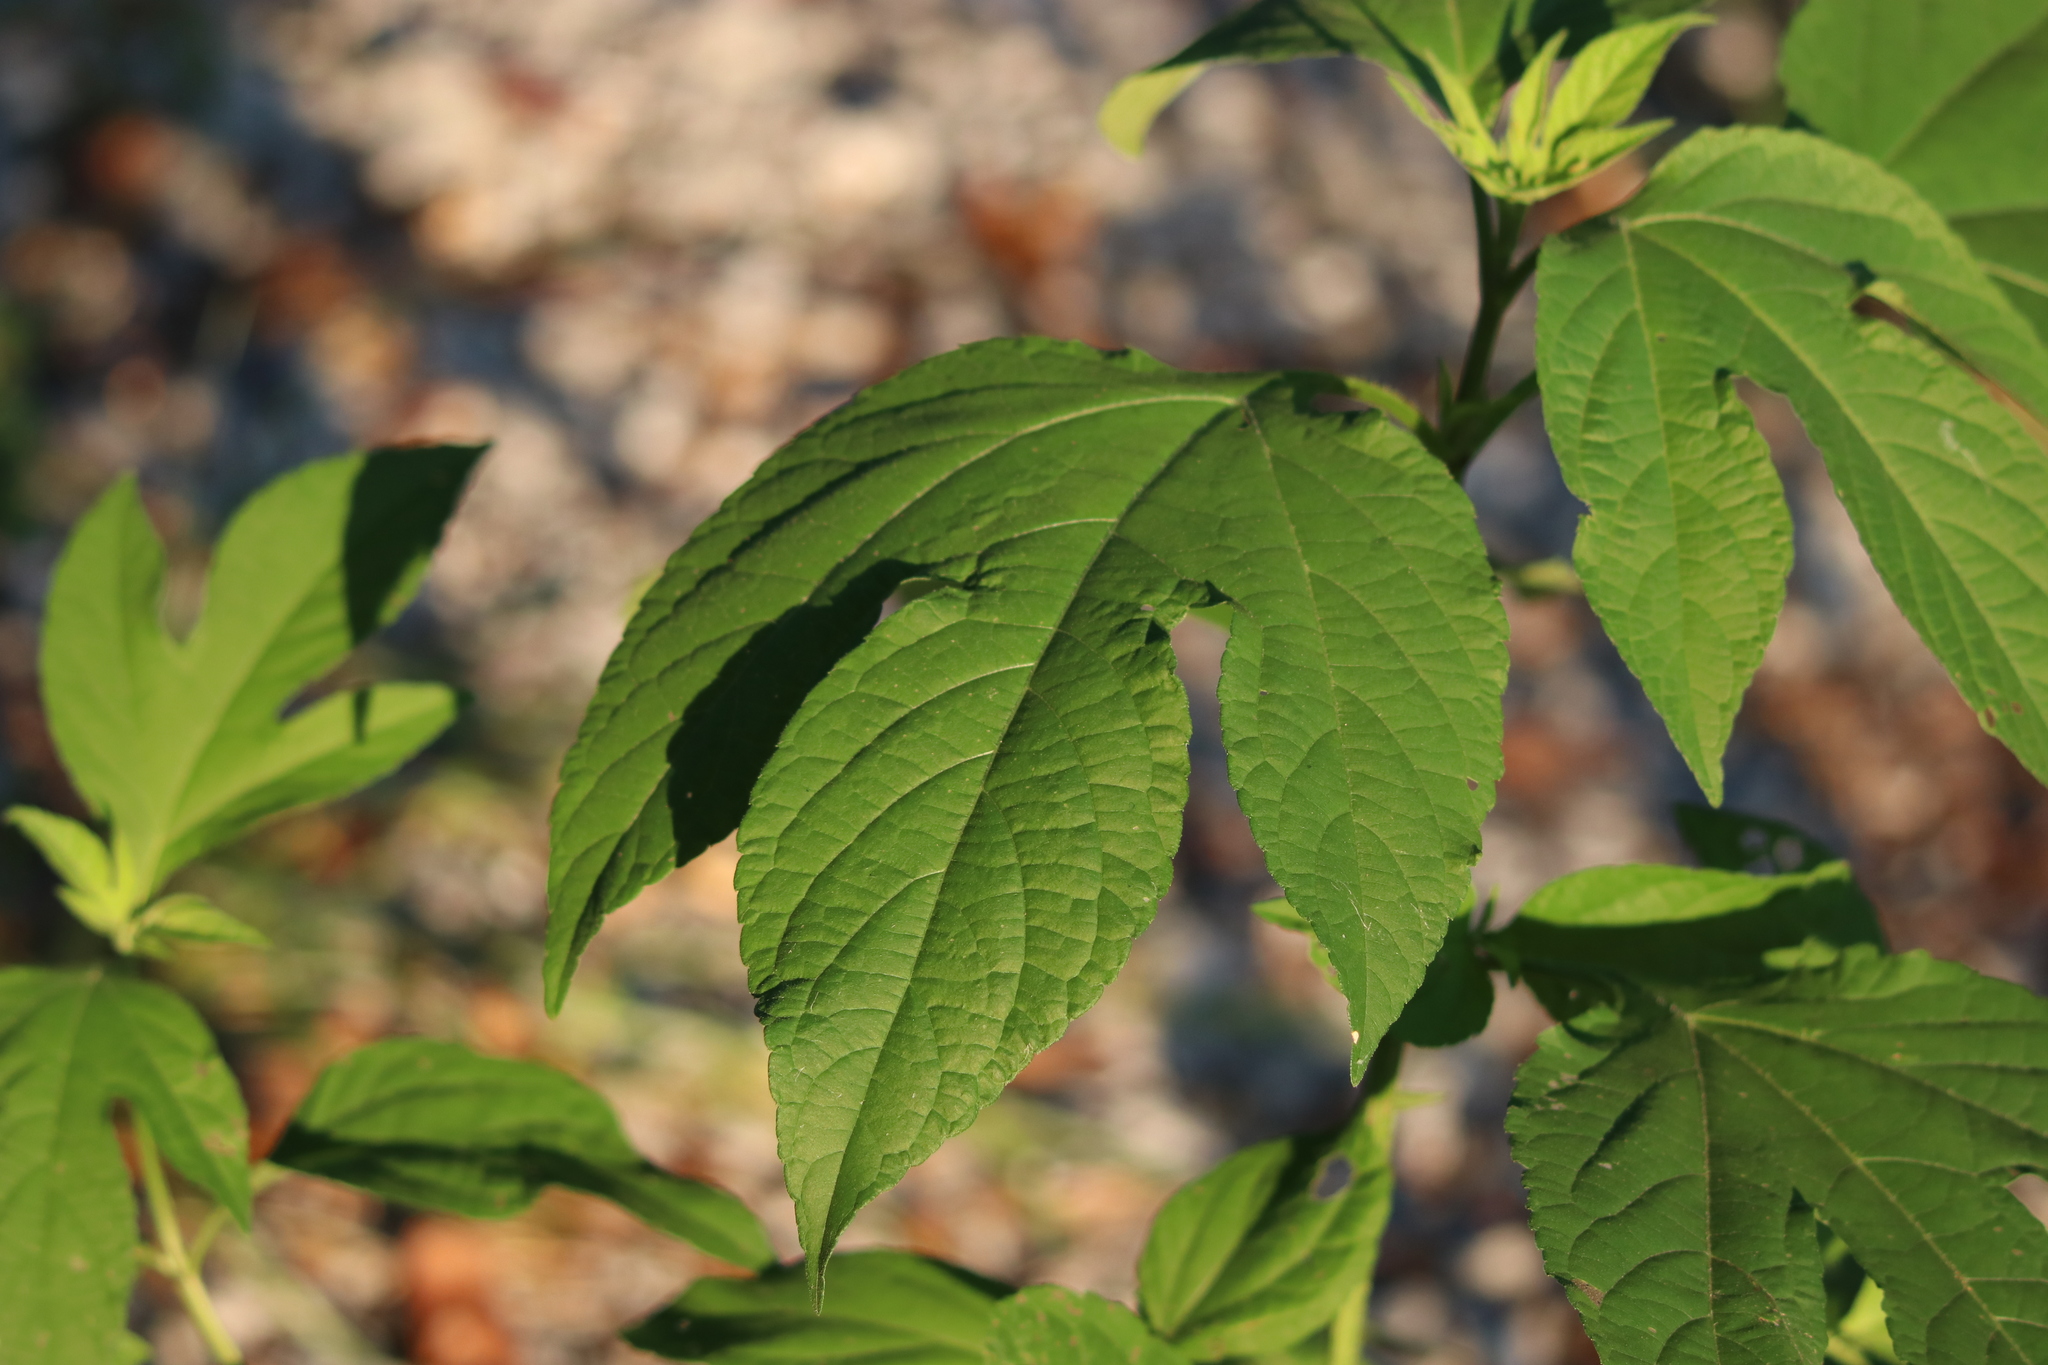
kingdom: Plantae
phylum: Tracheophyta
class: Magnoliopsida
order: Asterales
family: Asteraceae
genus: Ambrosia
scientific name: Ambrosia trifida
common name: Giant ragweed
